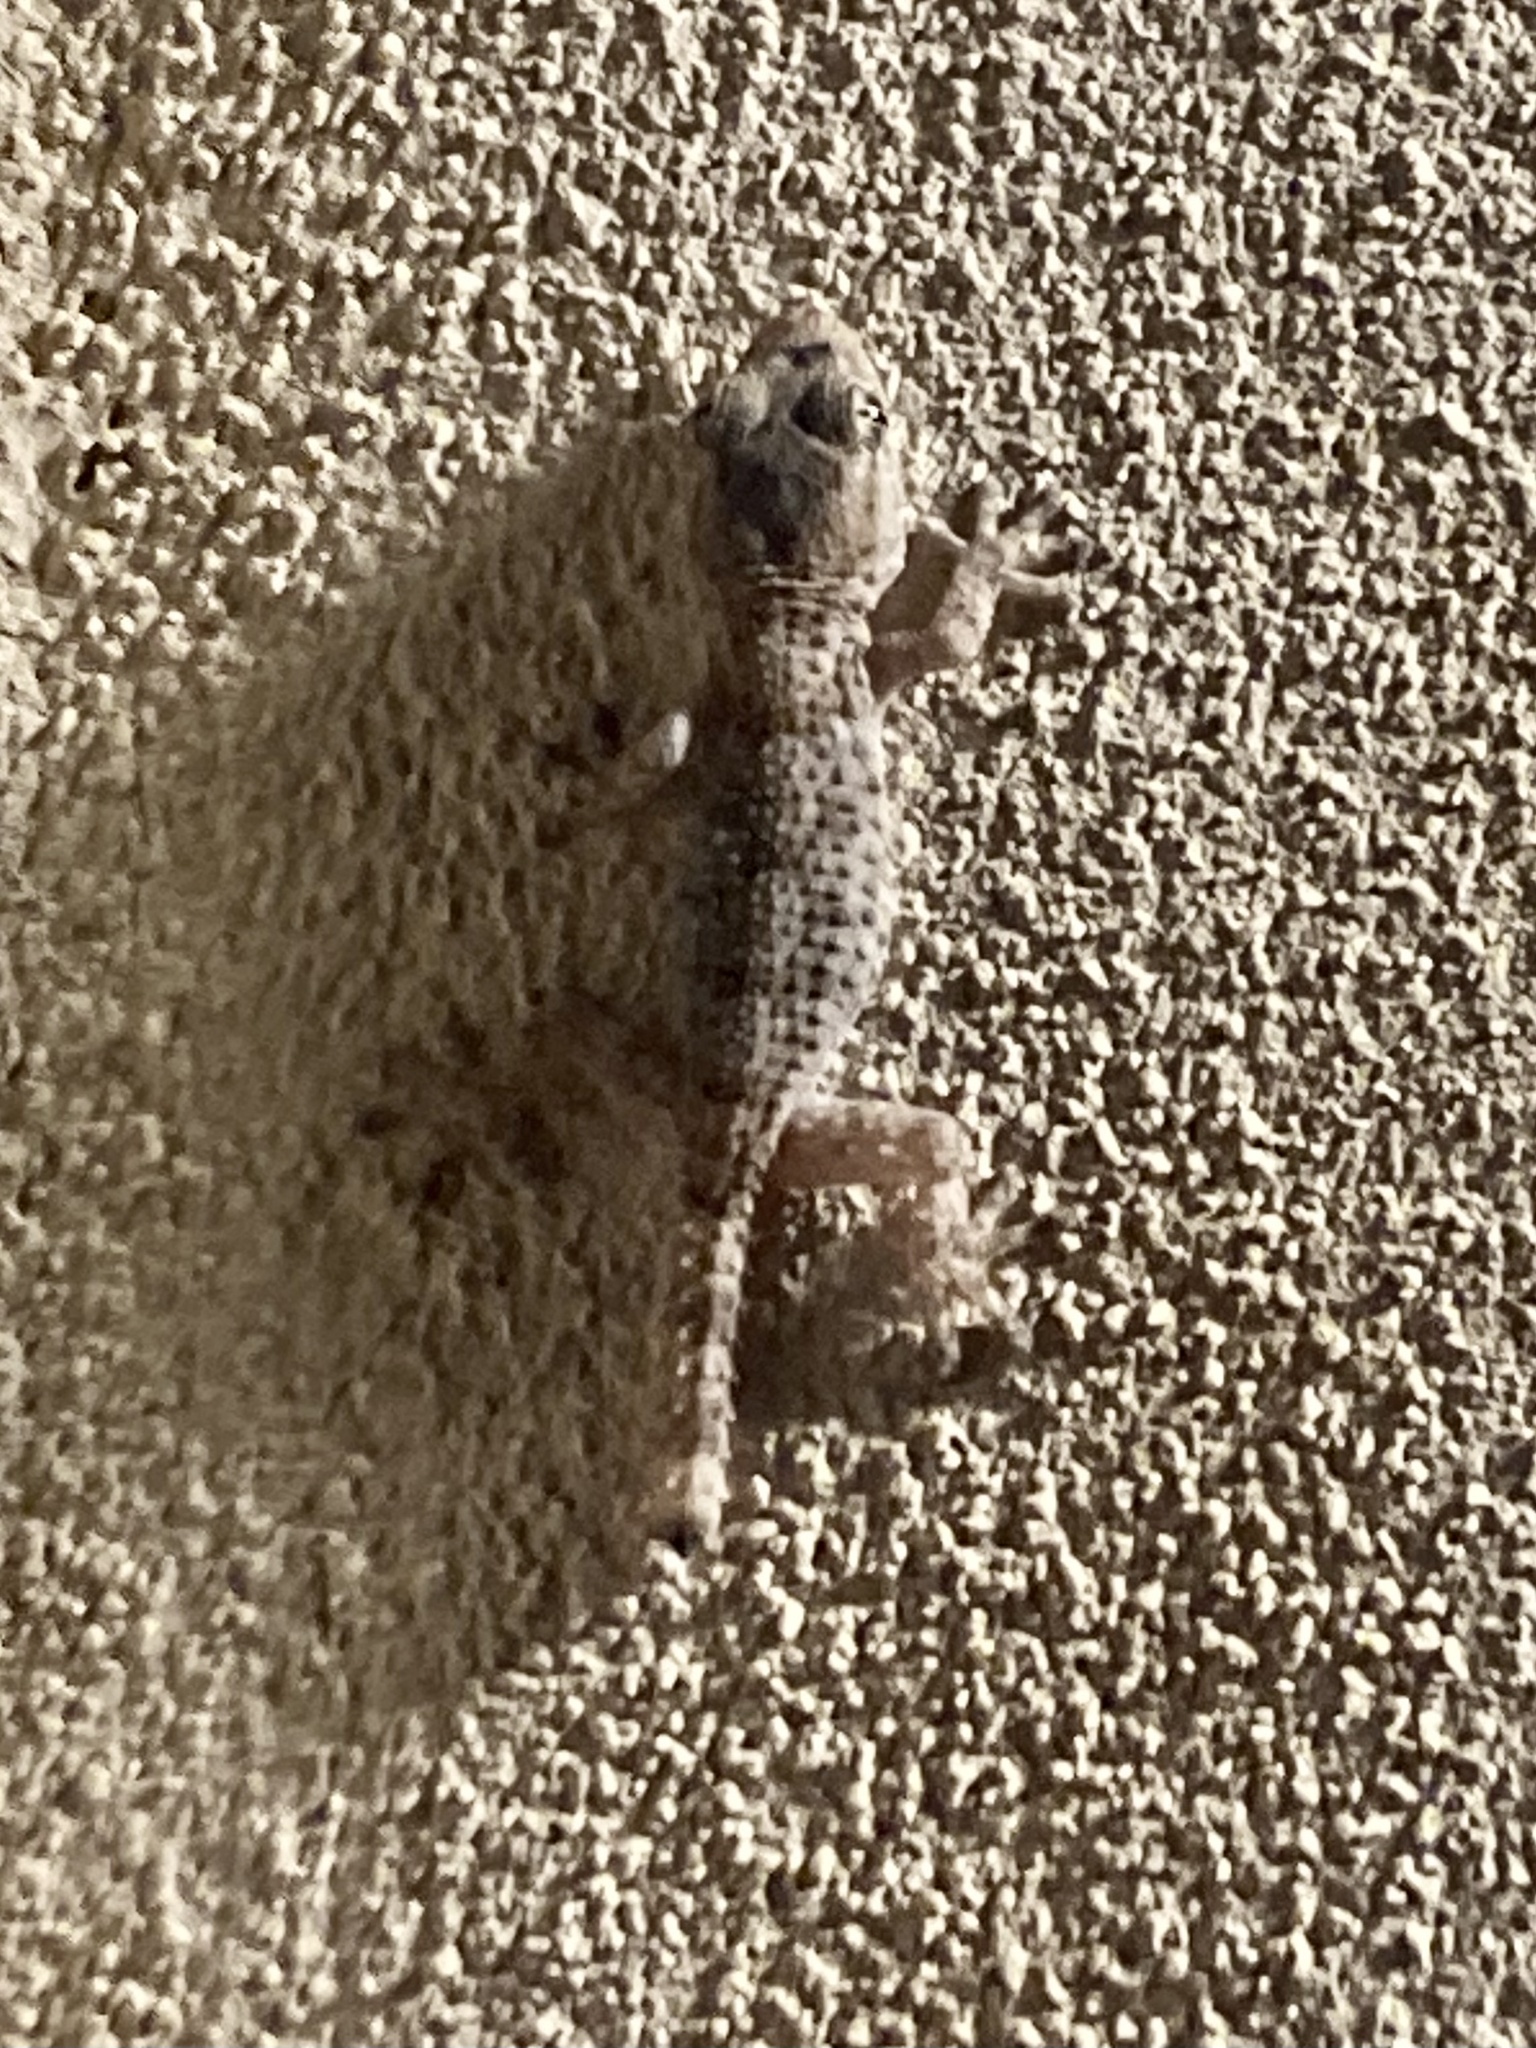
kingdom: Animalia
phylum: Chordata
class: Squamata
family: Phyllodactylidae
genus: Tarentola
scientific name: Tarentola mauritanica
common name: Moorish gecko
